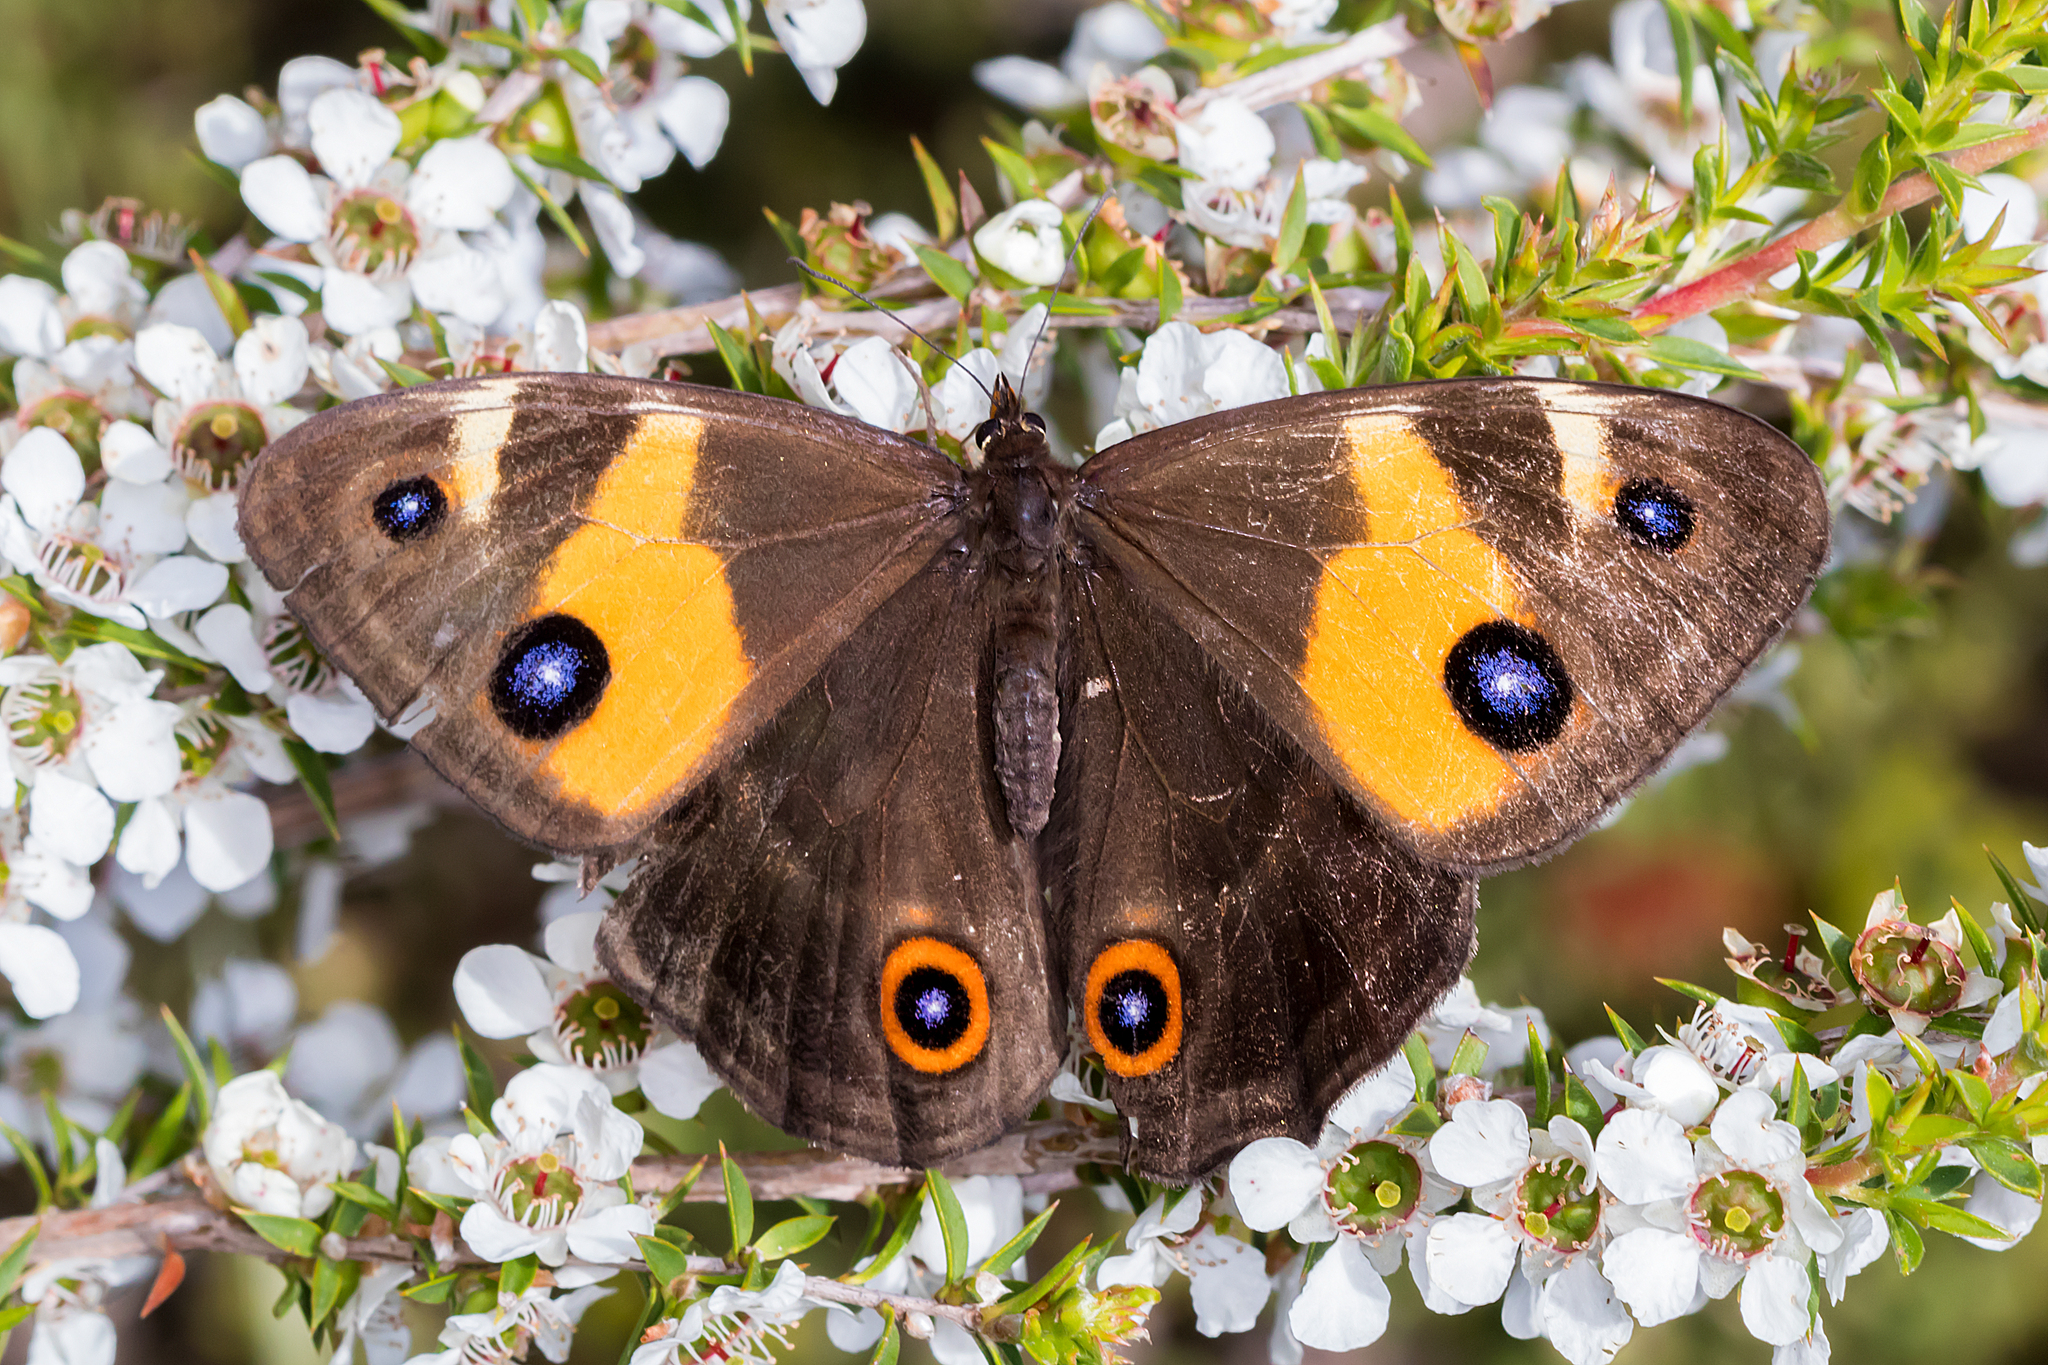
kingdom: Animalia
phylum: Arthropoda
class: Insecta
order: Lepidoptera
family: Nymphalidae
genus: Tisiphone
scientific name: Tisiphone abeona
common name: Swordgrass brown
